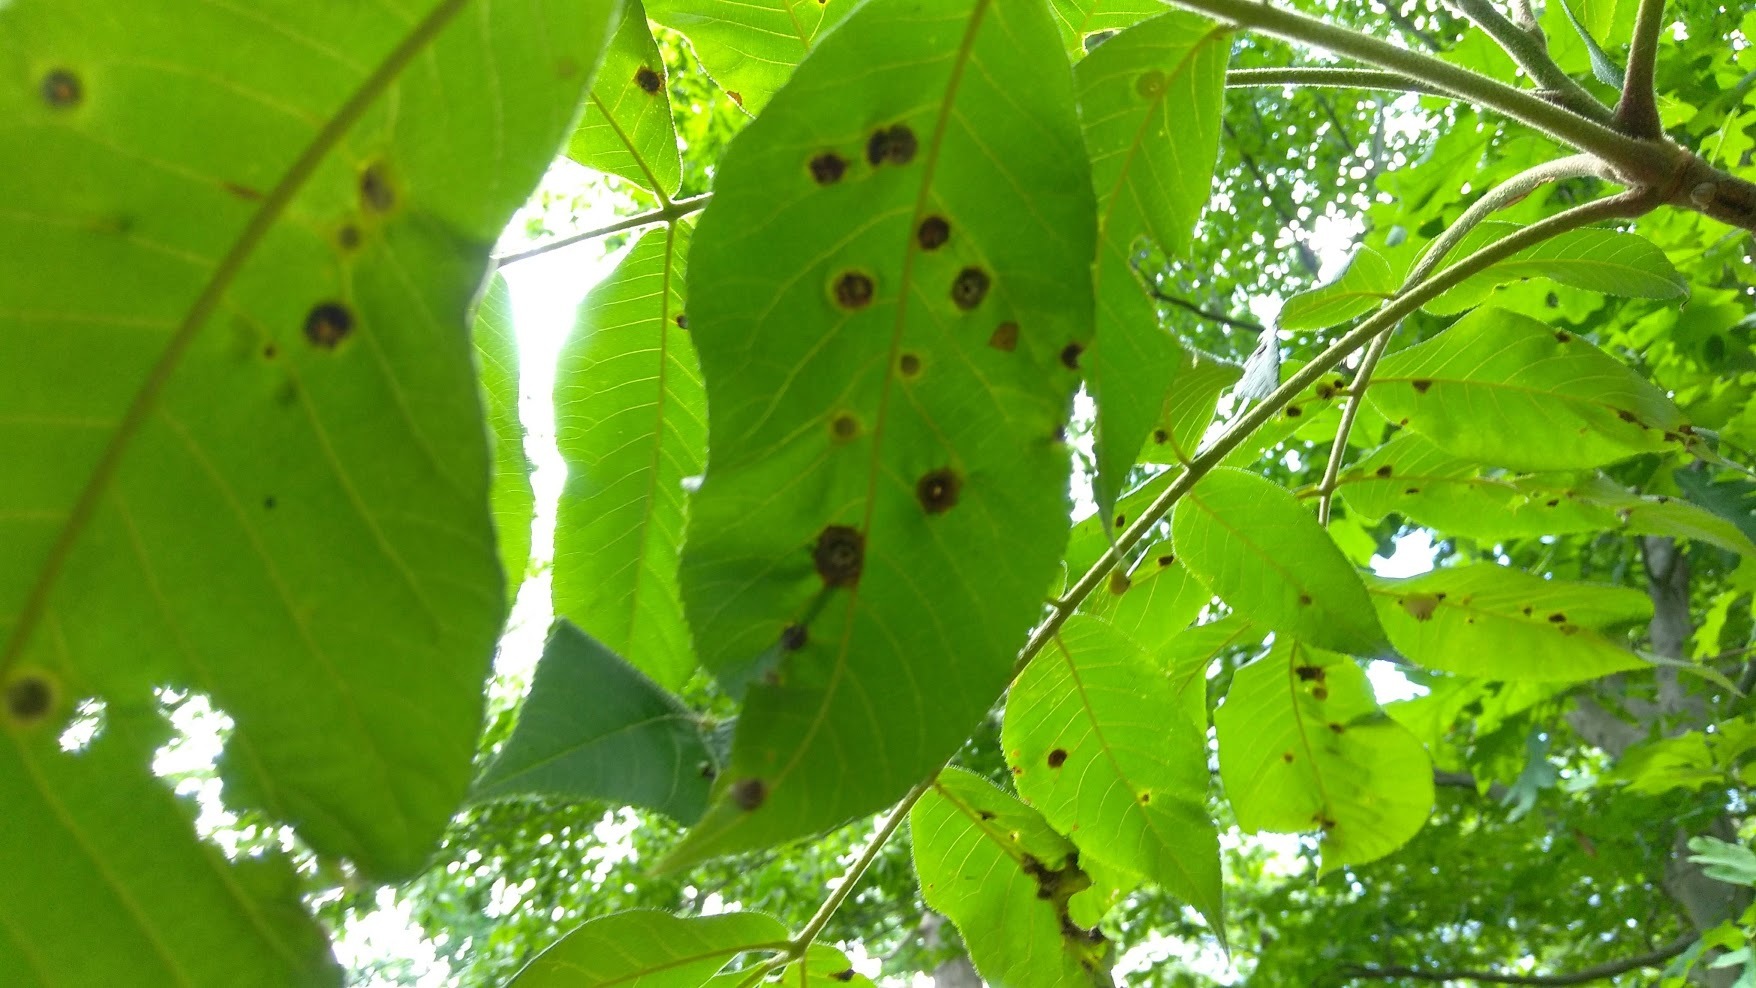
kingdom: Plantae
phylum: Tracheophyta
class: Magnoliopsida
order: Fagales
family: Fagaceae
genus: Fagus
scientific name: Fagus grandifolia
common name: American beech
